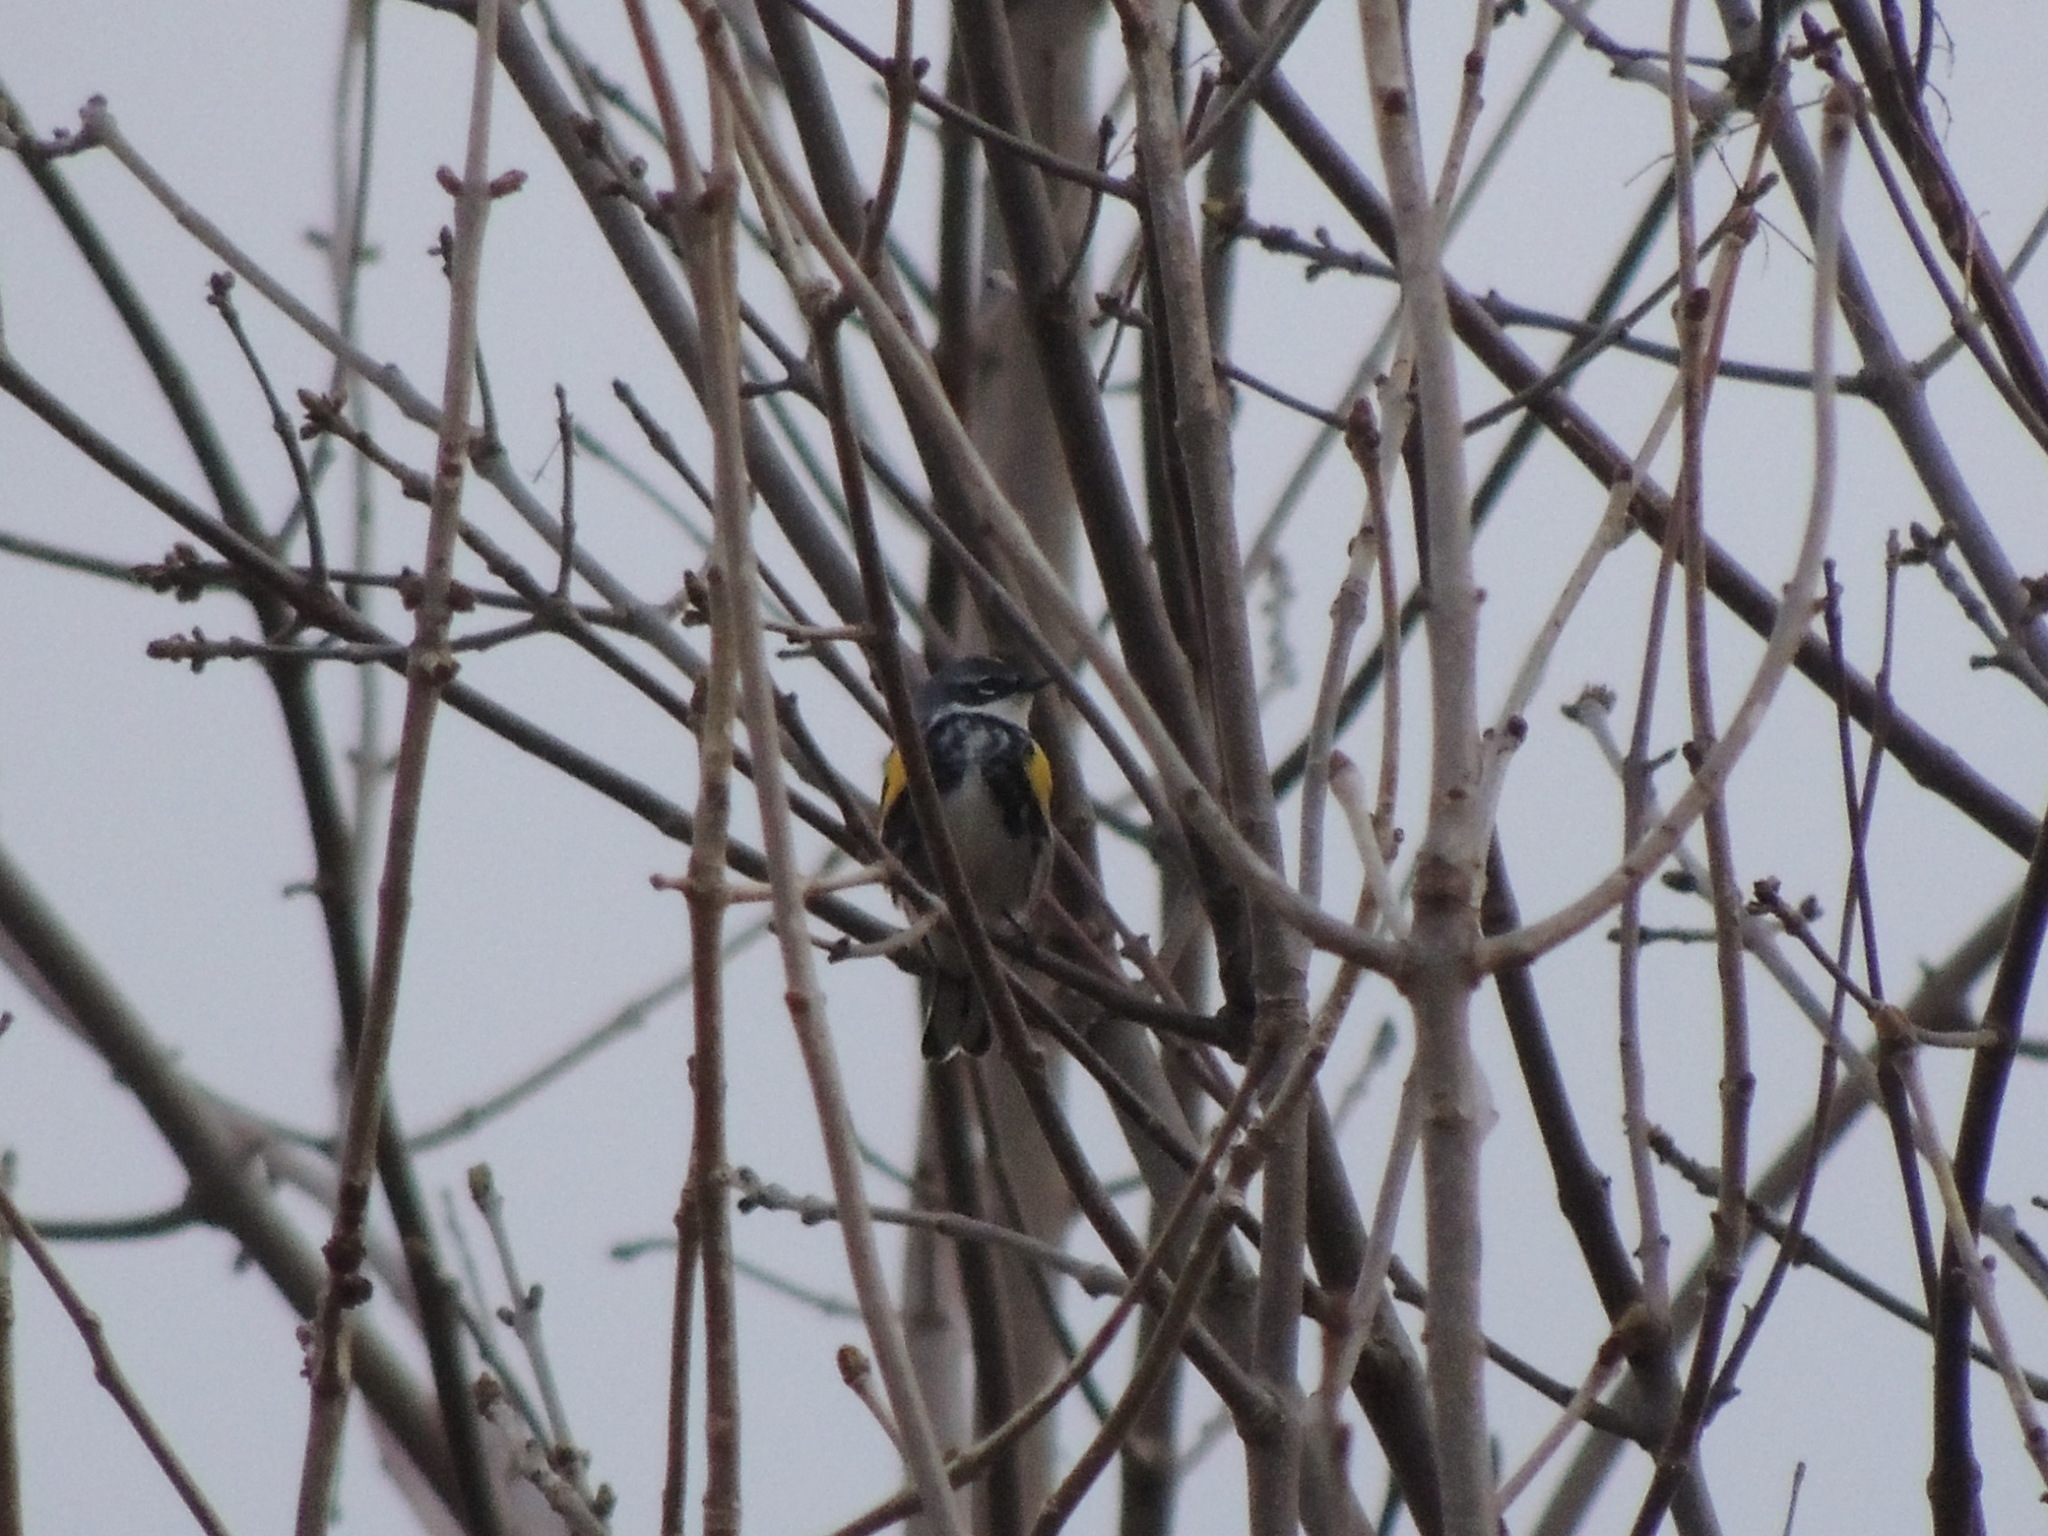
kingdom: Animalia
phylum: Chordata
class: Aves
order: Passeriformes
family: Parulidae
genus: Setophaga
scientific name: Setophaga coronata
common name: Myrtle warbler
